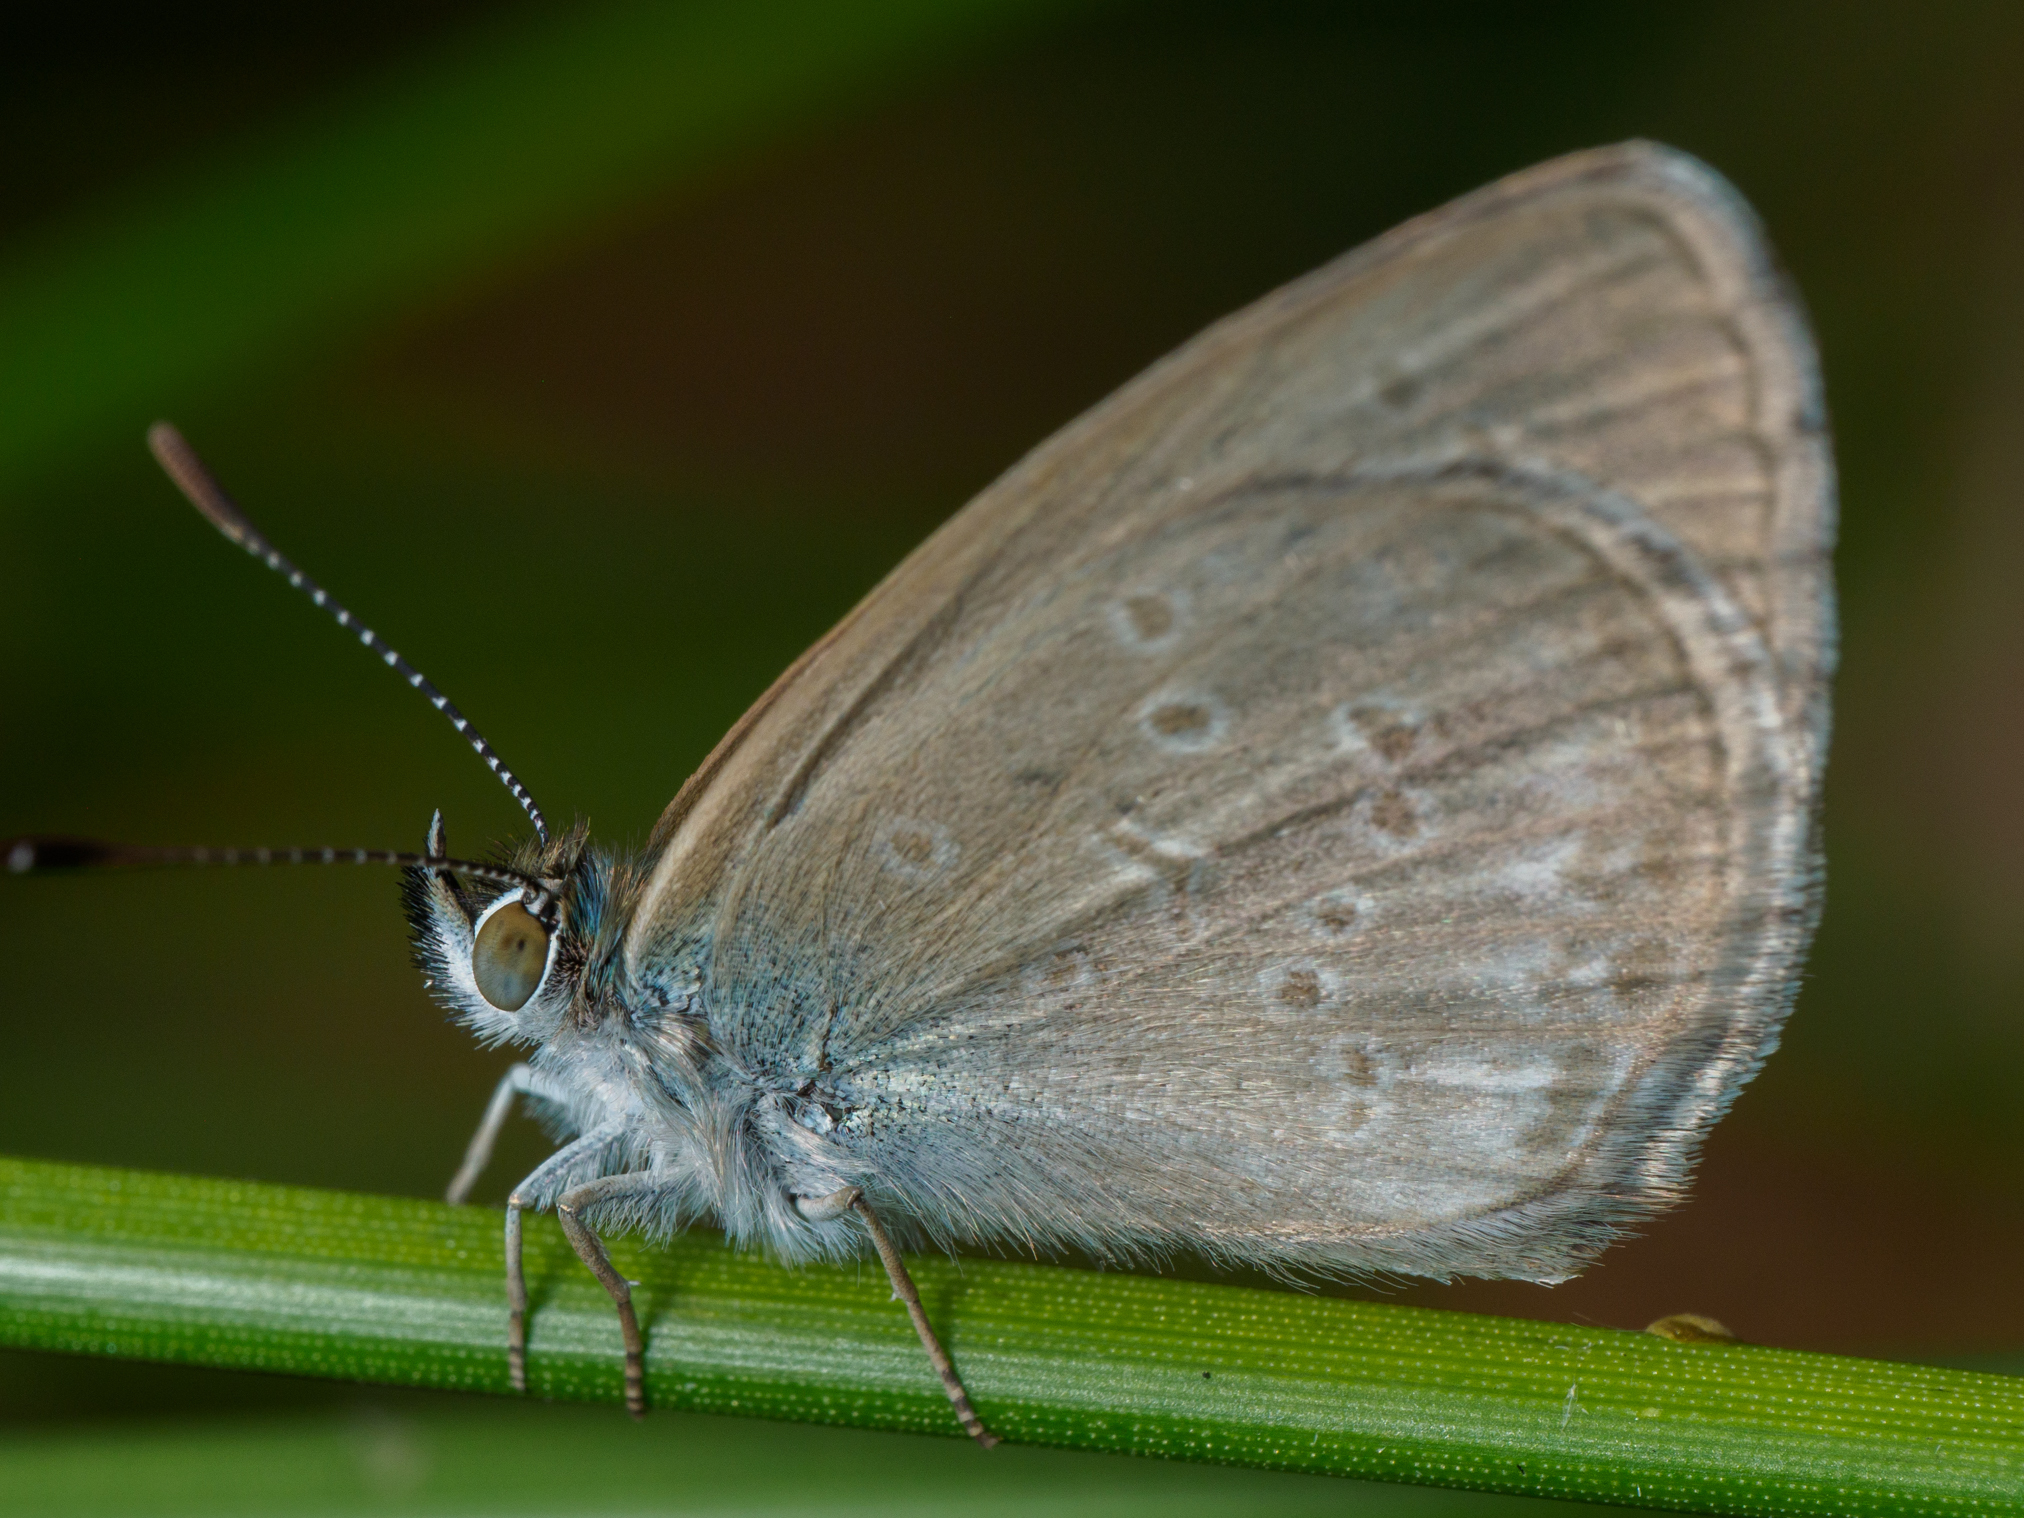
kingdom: Animalia
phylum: Arthropoda
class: Insecta
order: Lepidoptera
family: Lycaenidae
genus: Zizina
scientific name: Zizina otis
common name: Lesser grass blue
